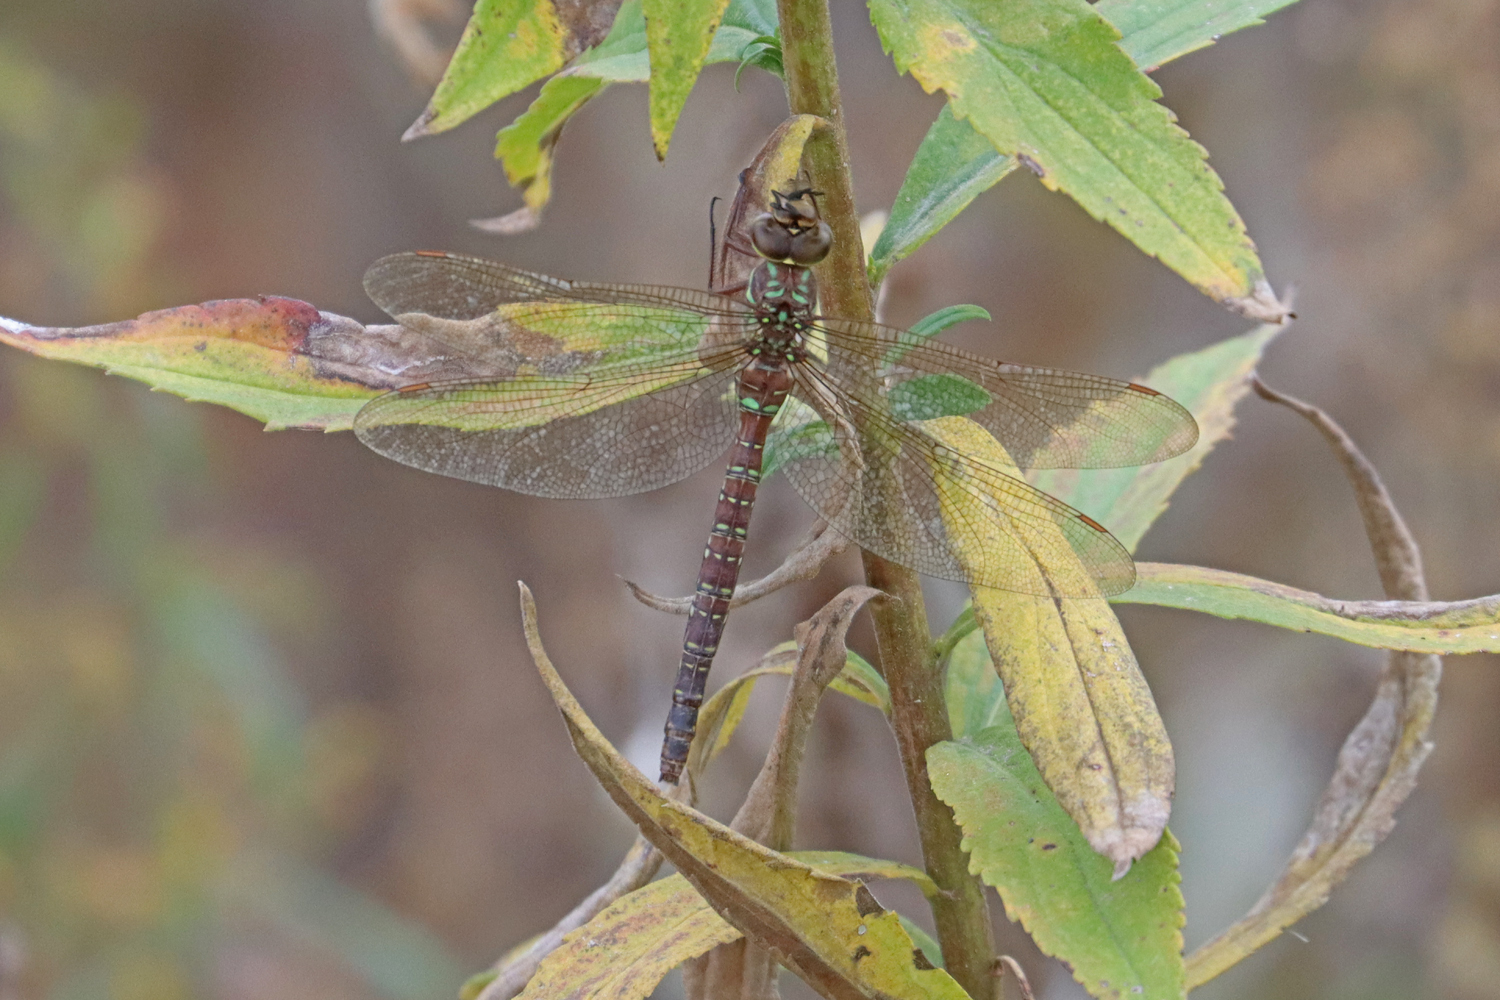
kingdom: Animalia
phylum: Arthropoda
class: Insecta
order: Odonata
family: Aeshnidae
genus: Aeshna
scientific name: Aeshna umbrosa
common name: Shadow darner
